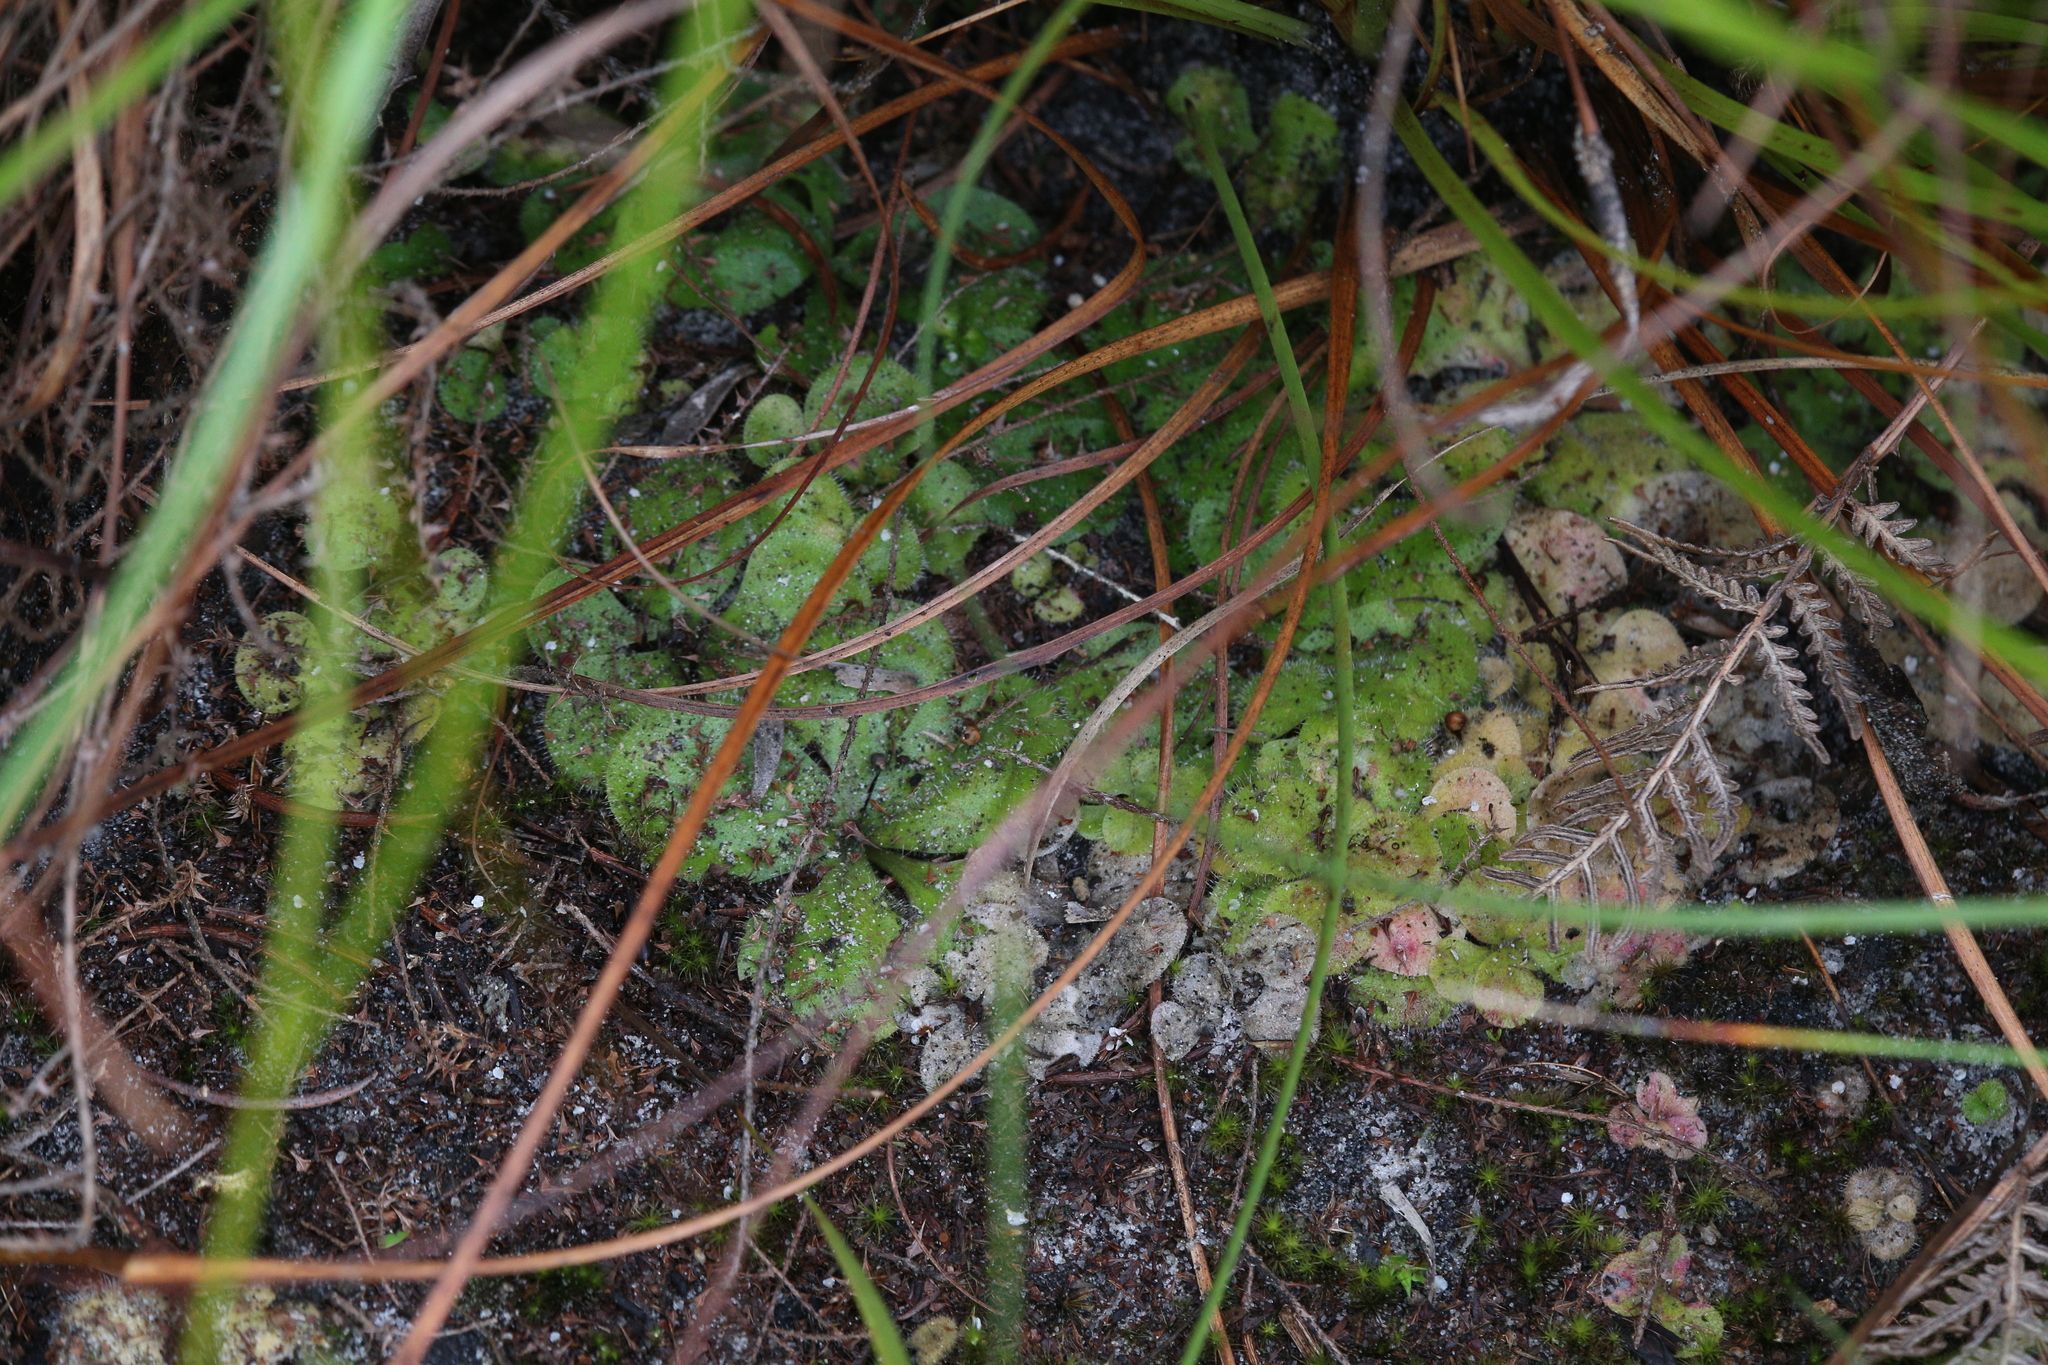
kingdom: Plantae
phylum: Tracheophyta
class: Magnoliopsida
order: Caryophyllales
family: Droseraceae
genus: Drosera
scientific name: Drosera erythrorhiza
